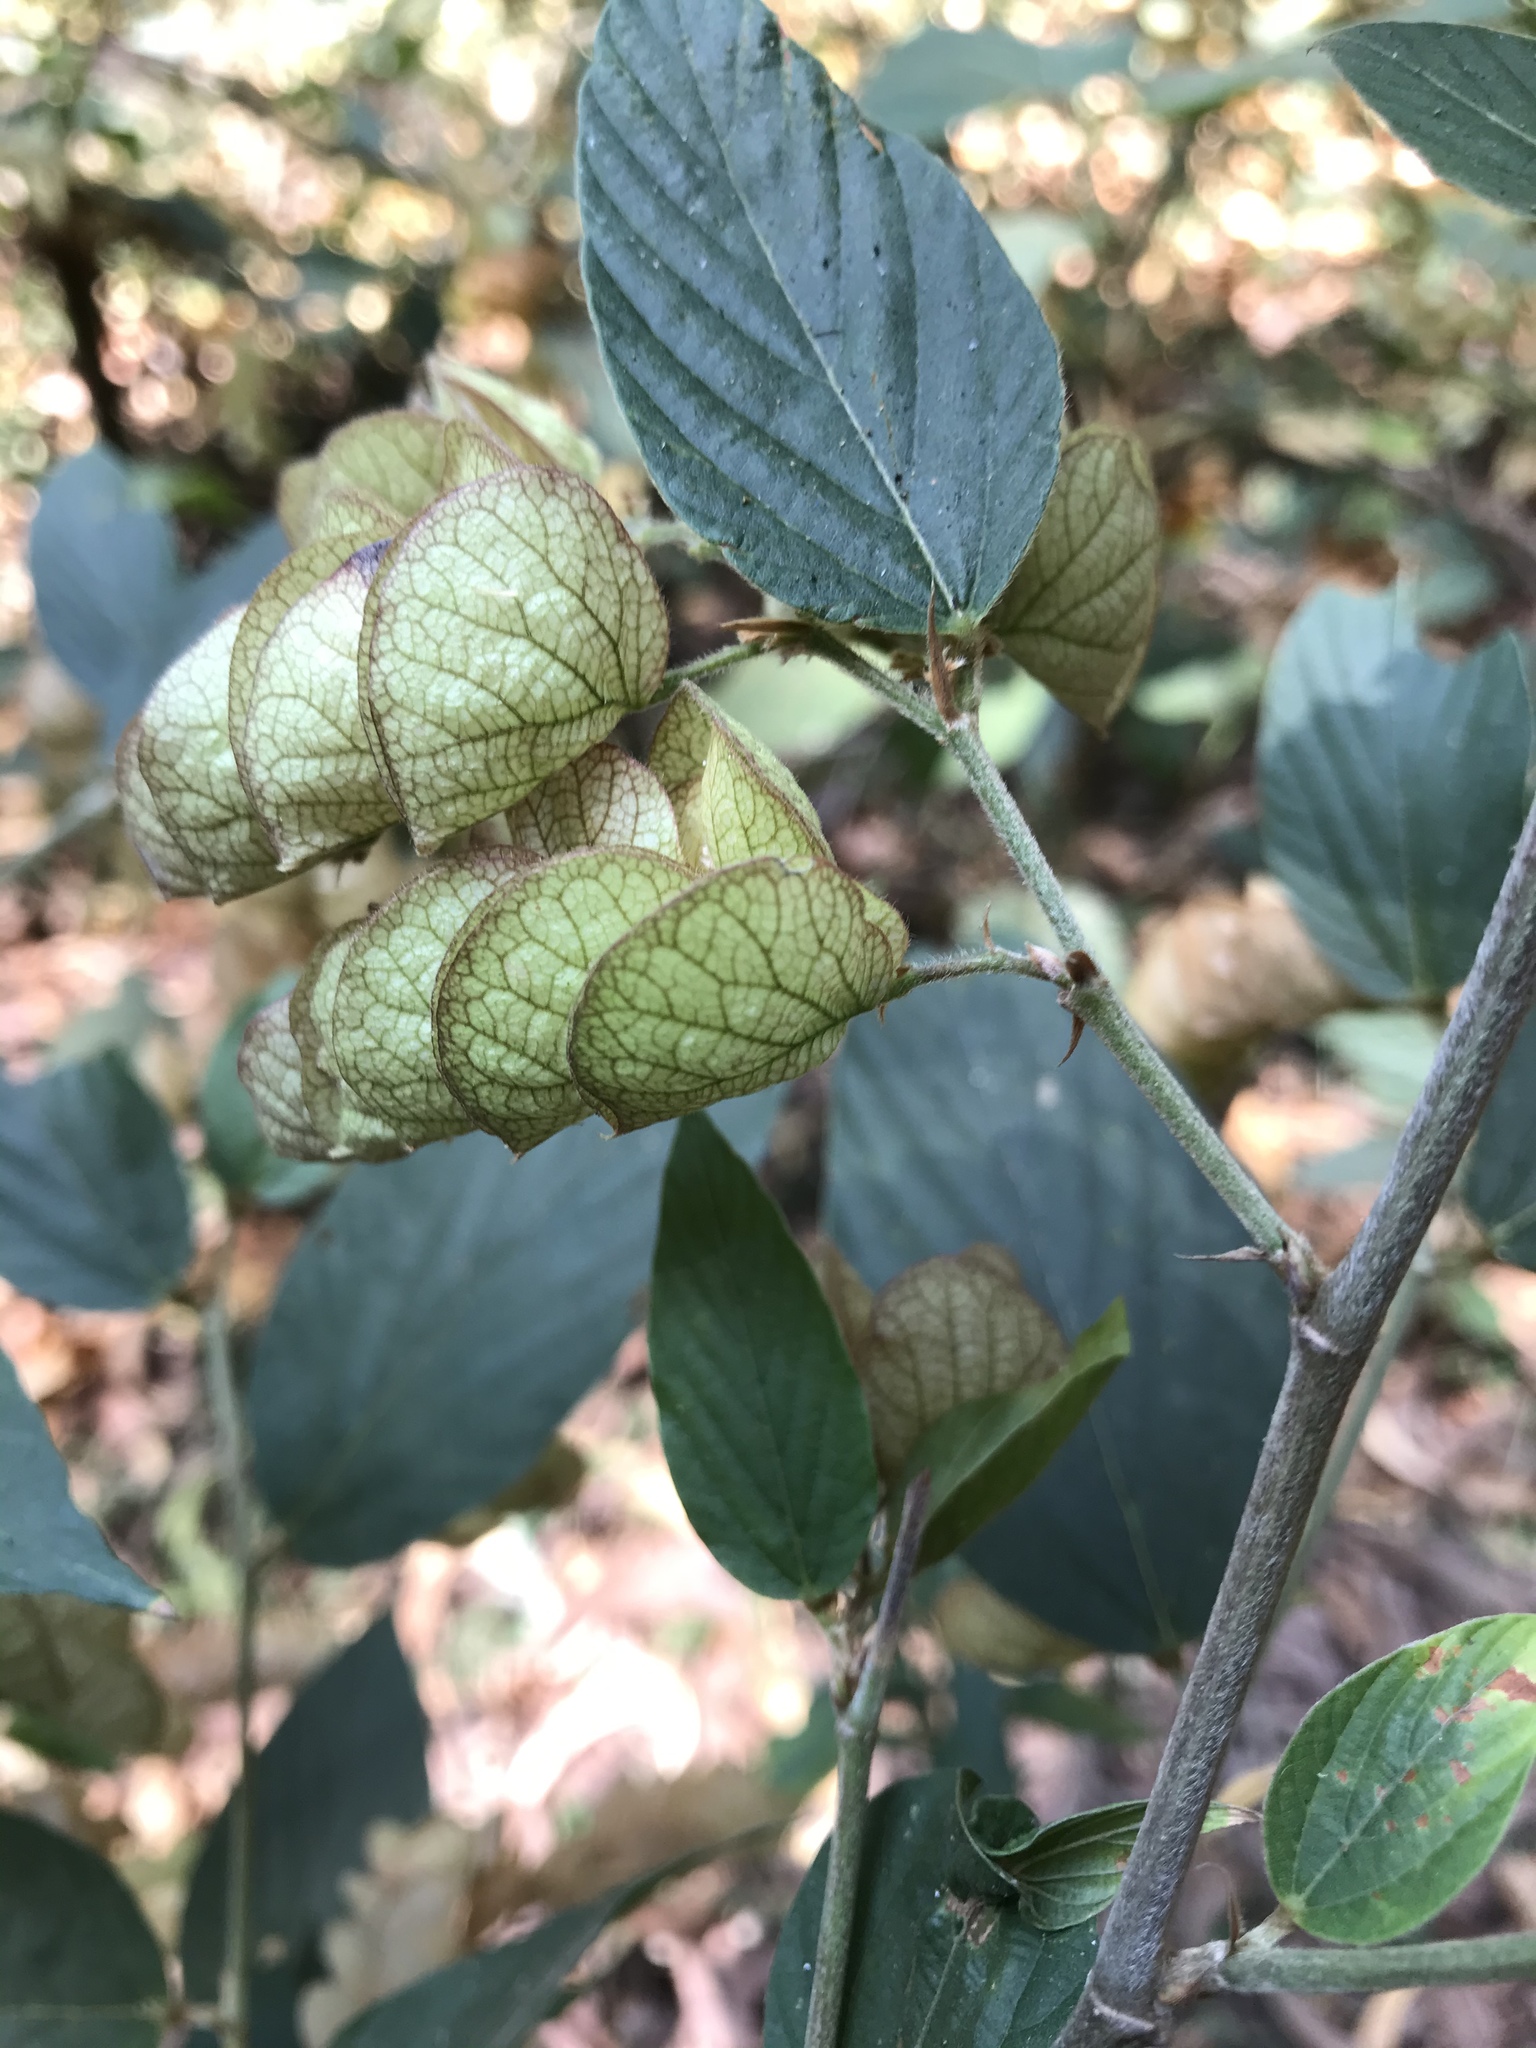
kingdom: Plantae
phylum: Tracheophyta
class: Magnoliopsida
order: Fabales
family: Fabaceae
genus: Flemingia
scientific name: Flemingia strobilifera
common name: Wild hops
